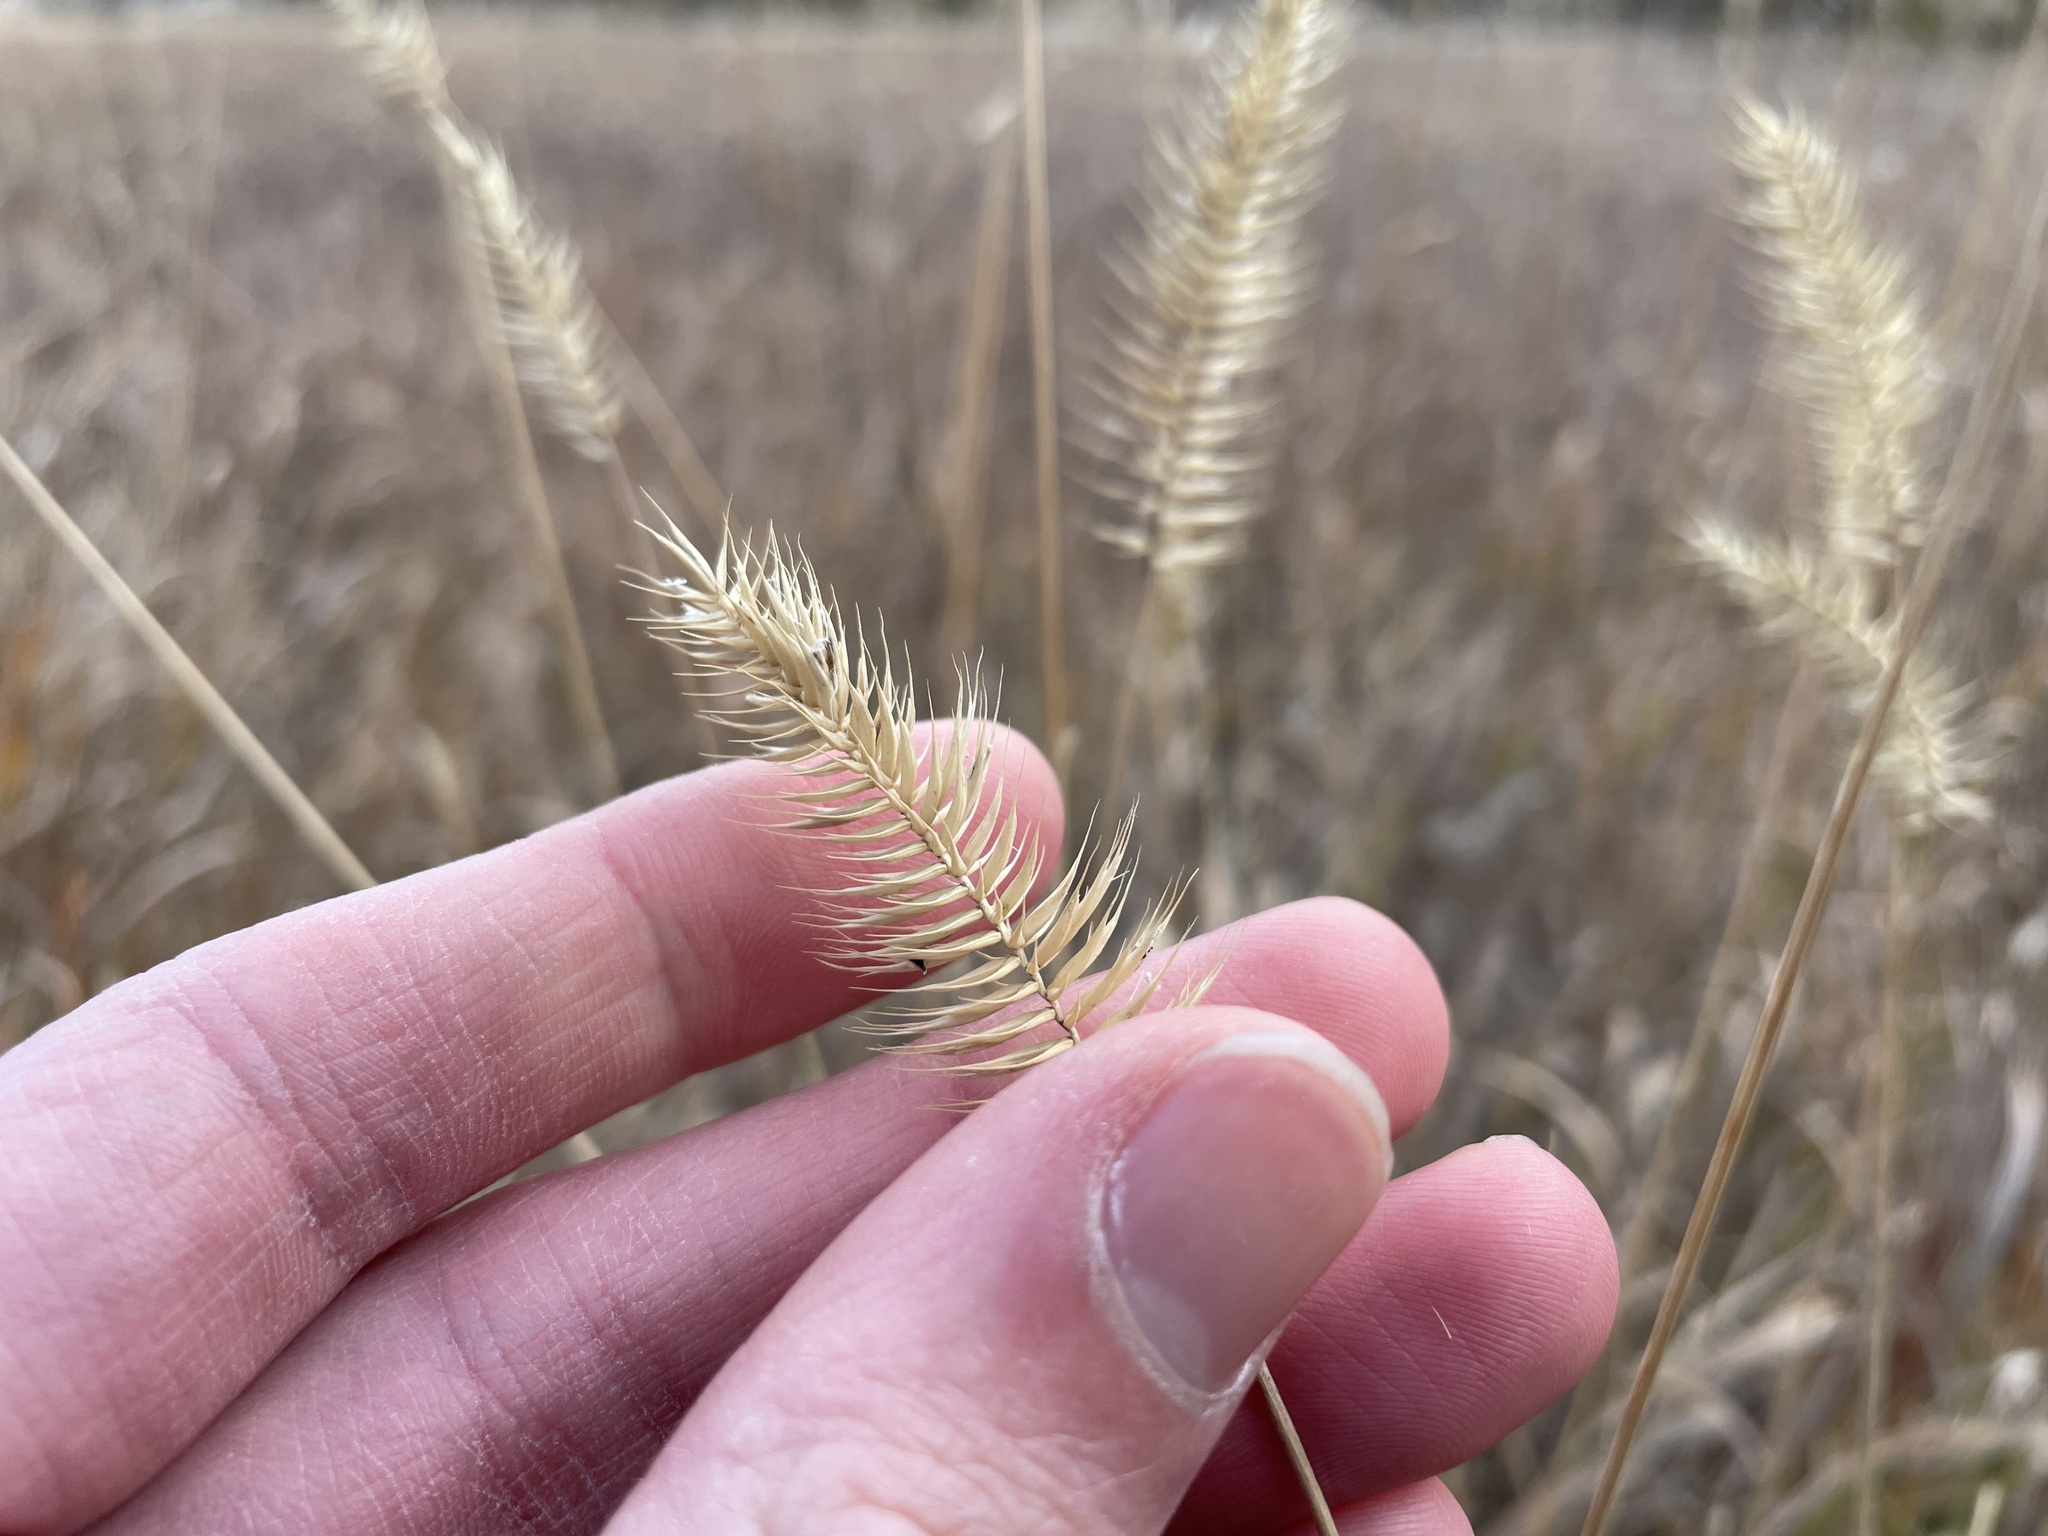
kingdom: Plantae
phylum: Tracheophyta
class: Liliopsida
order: Poales
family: Poaceae
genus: Agropyron
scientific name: Agropyron cristatum
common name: Crested wheatgrass
